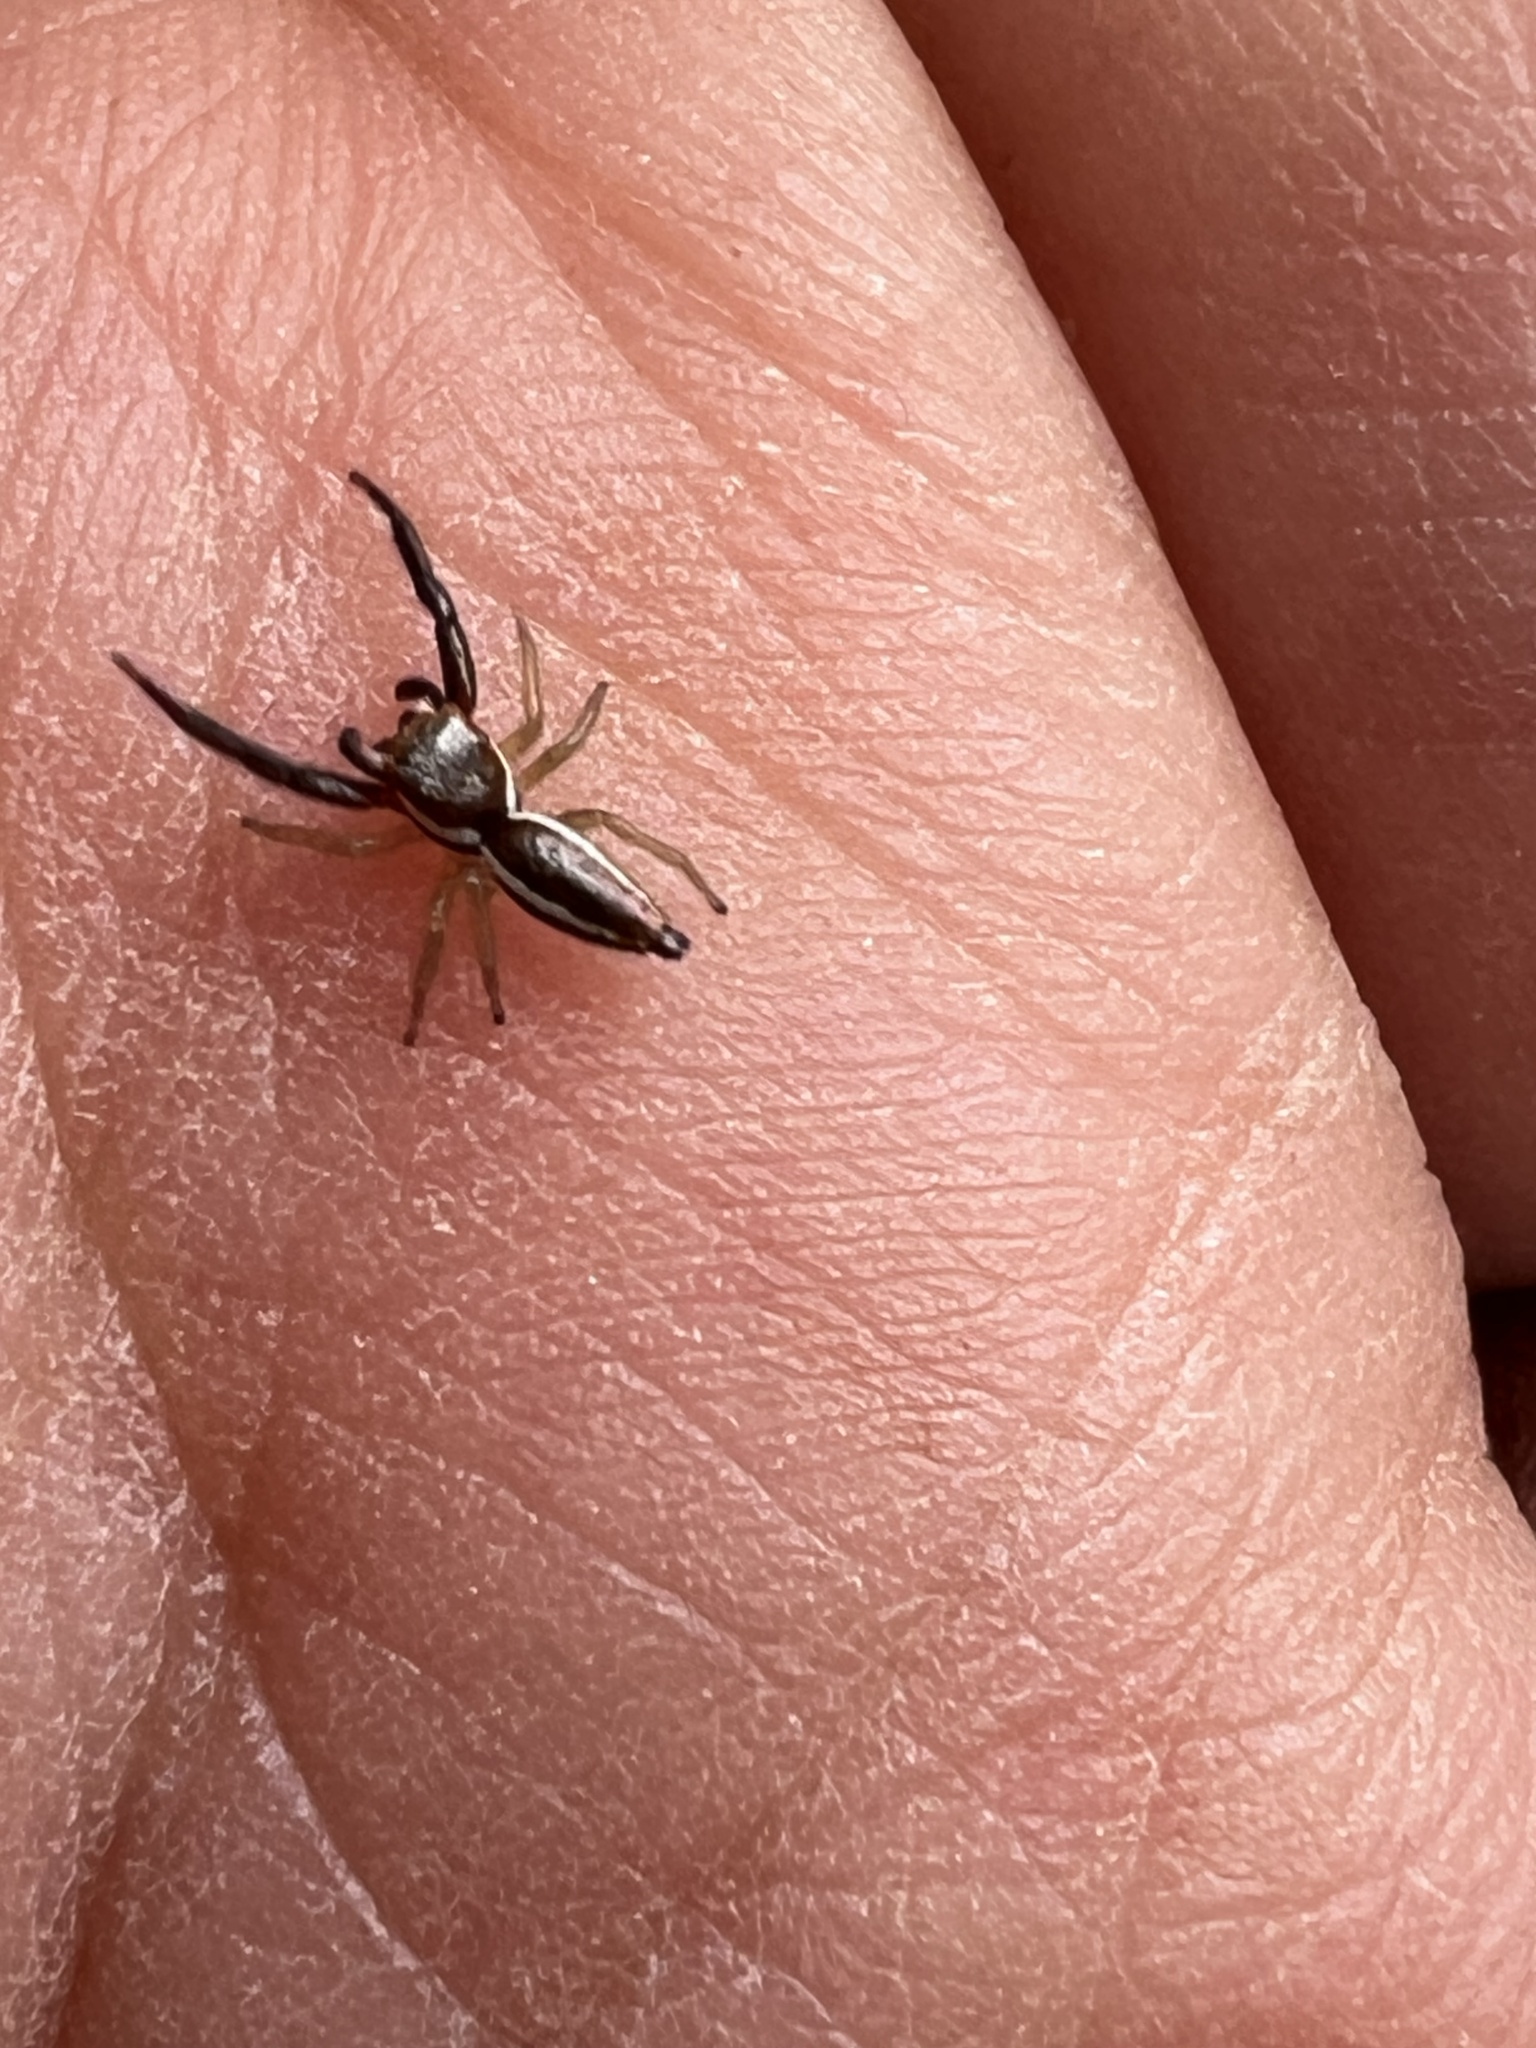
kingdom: Animalia
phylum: Arthropoda
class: Arachnida
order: Araneae
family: Salticidae
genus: Hentzia
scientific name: Hentzia palmarum
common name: Common hentz jumping spider
